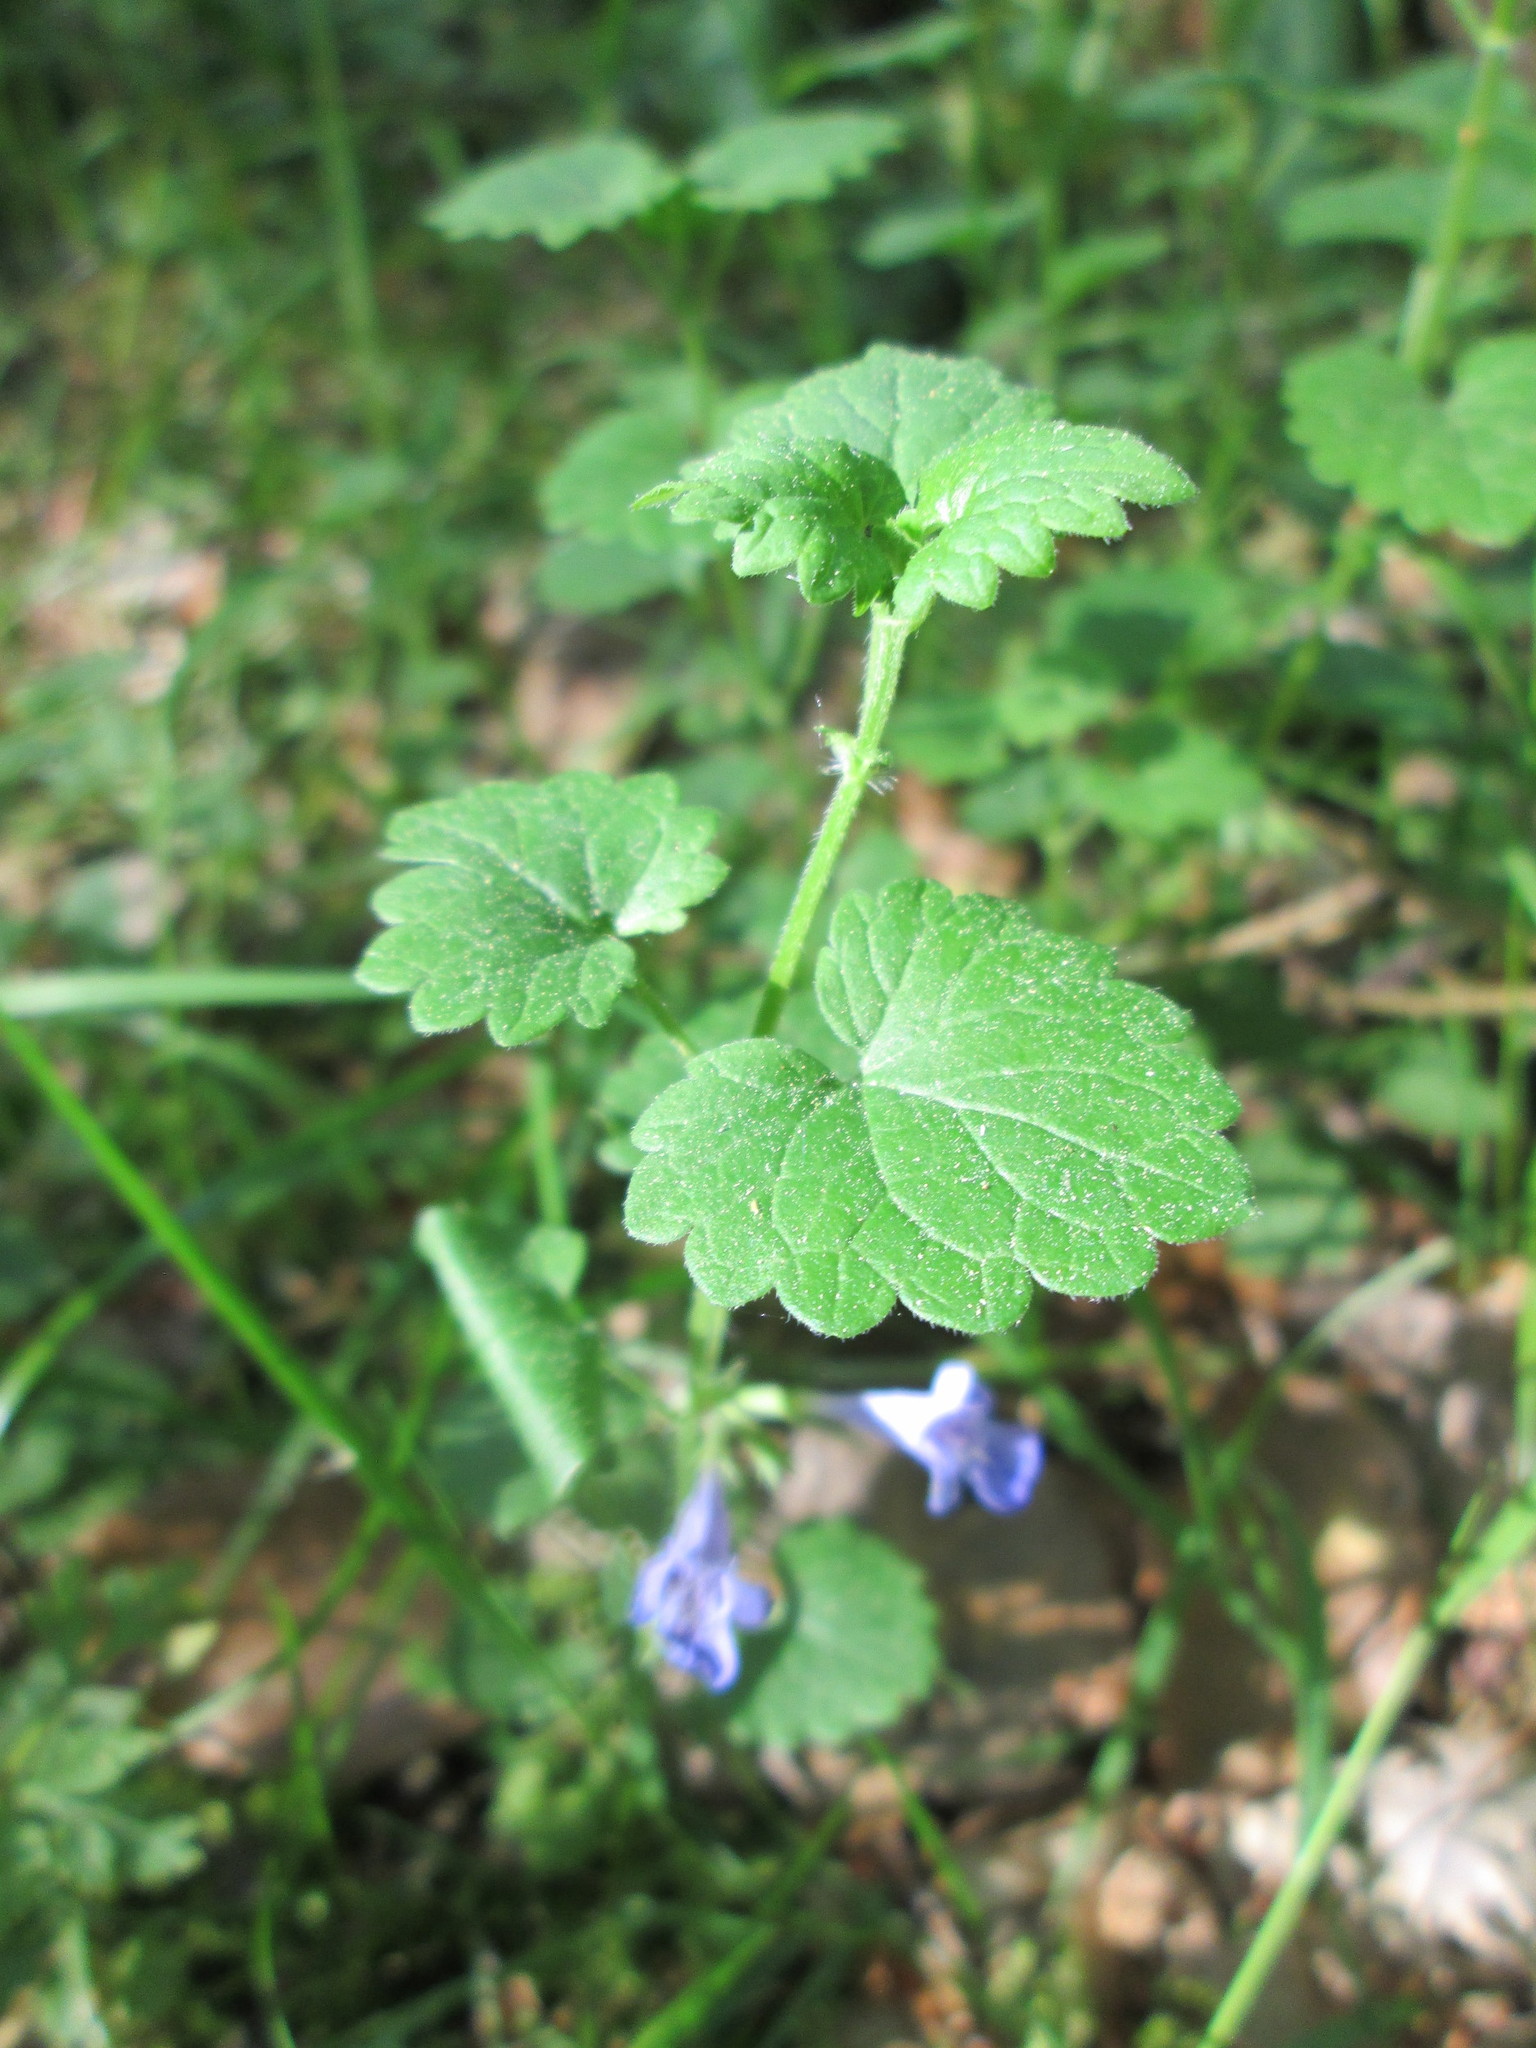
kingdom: Plantae
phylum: Tracheophyta
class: Magnoliopsida
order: Lamiales
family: Lamiaceae
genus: Glechoma
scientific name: Glechoma hederacea
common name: Ground ivy
